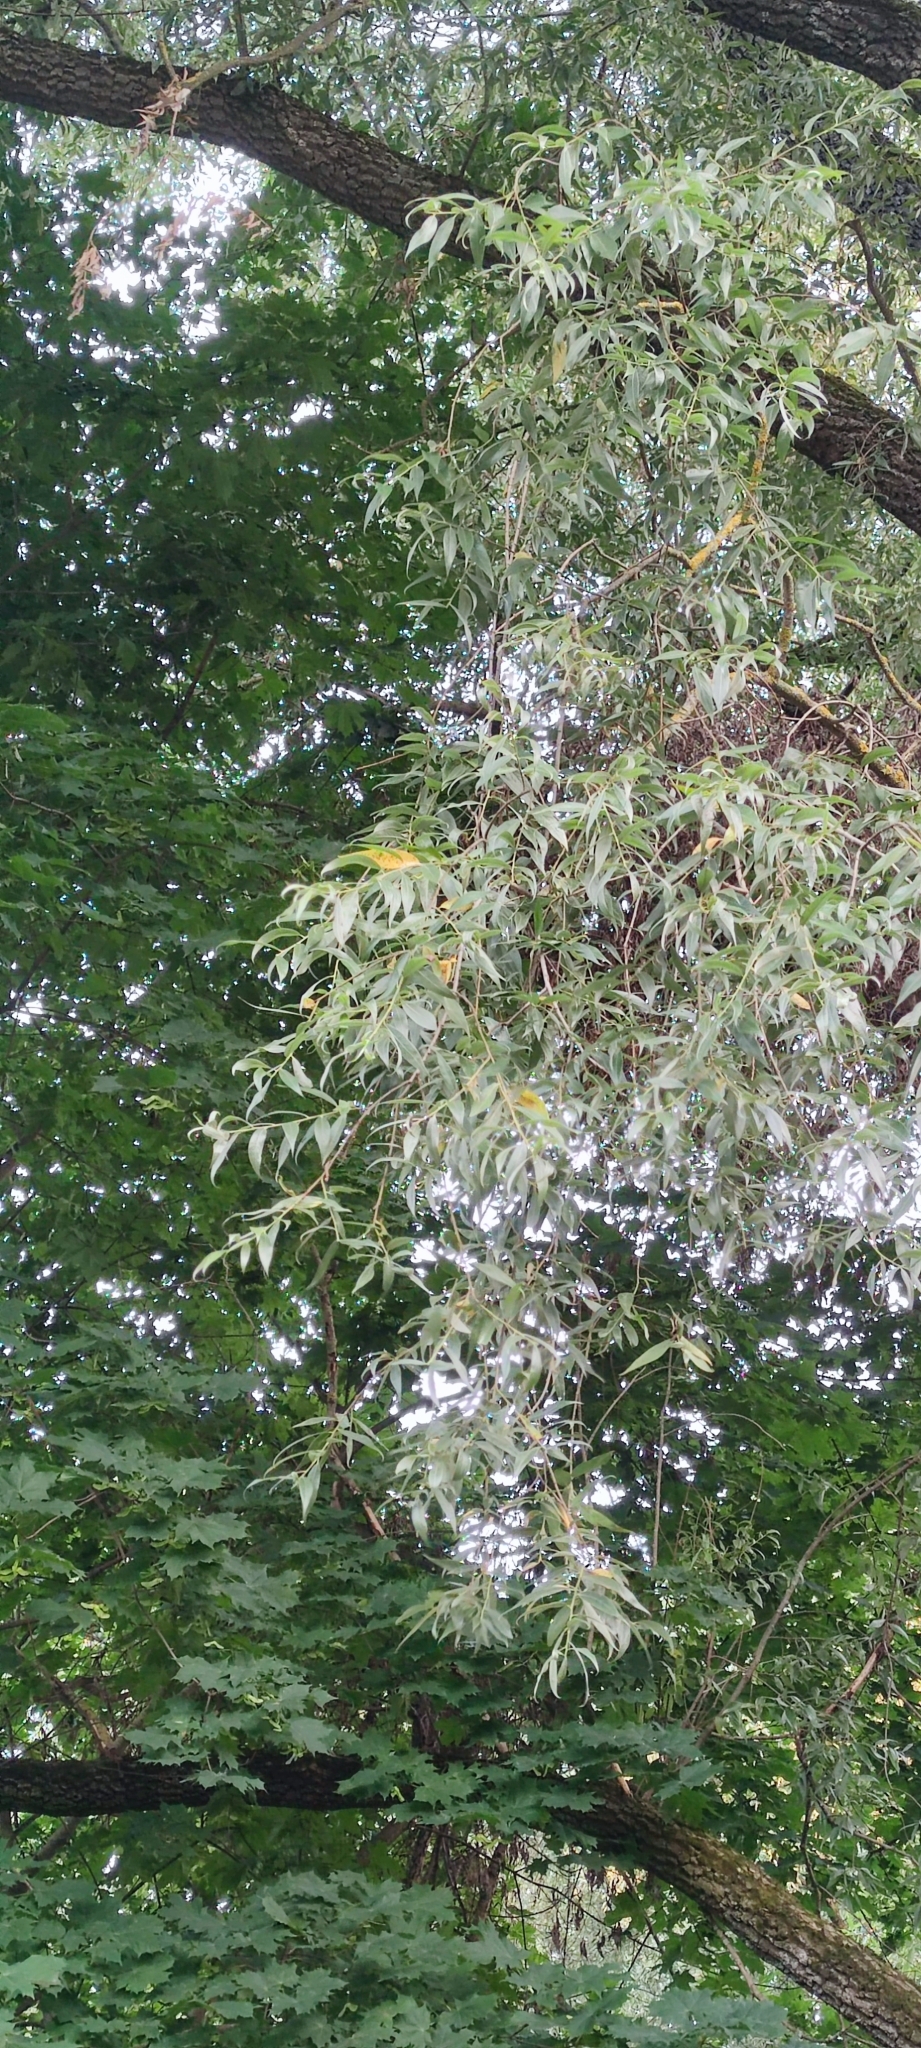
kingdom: Plantae
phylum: Tracheophyta
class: Magnoliopsida
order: Malpighiales
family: Salicaceae
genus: Salix
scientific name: Salix alba
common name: White willow
